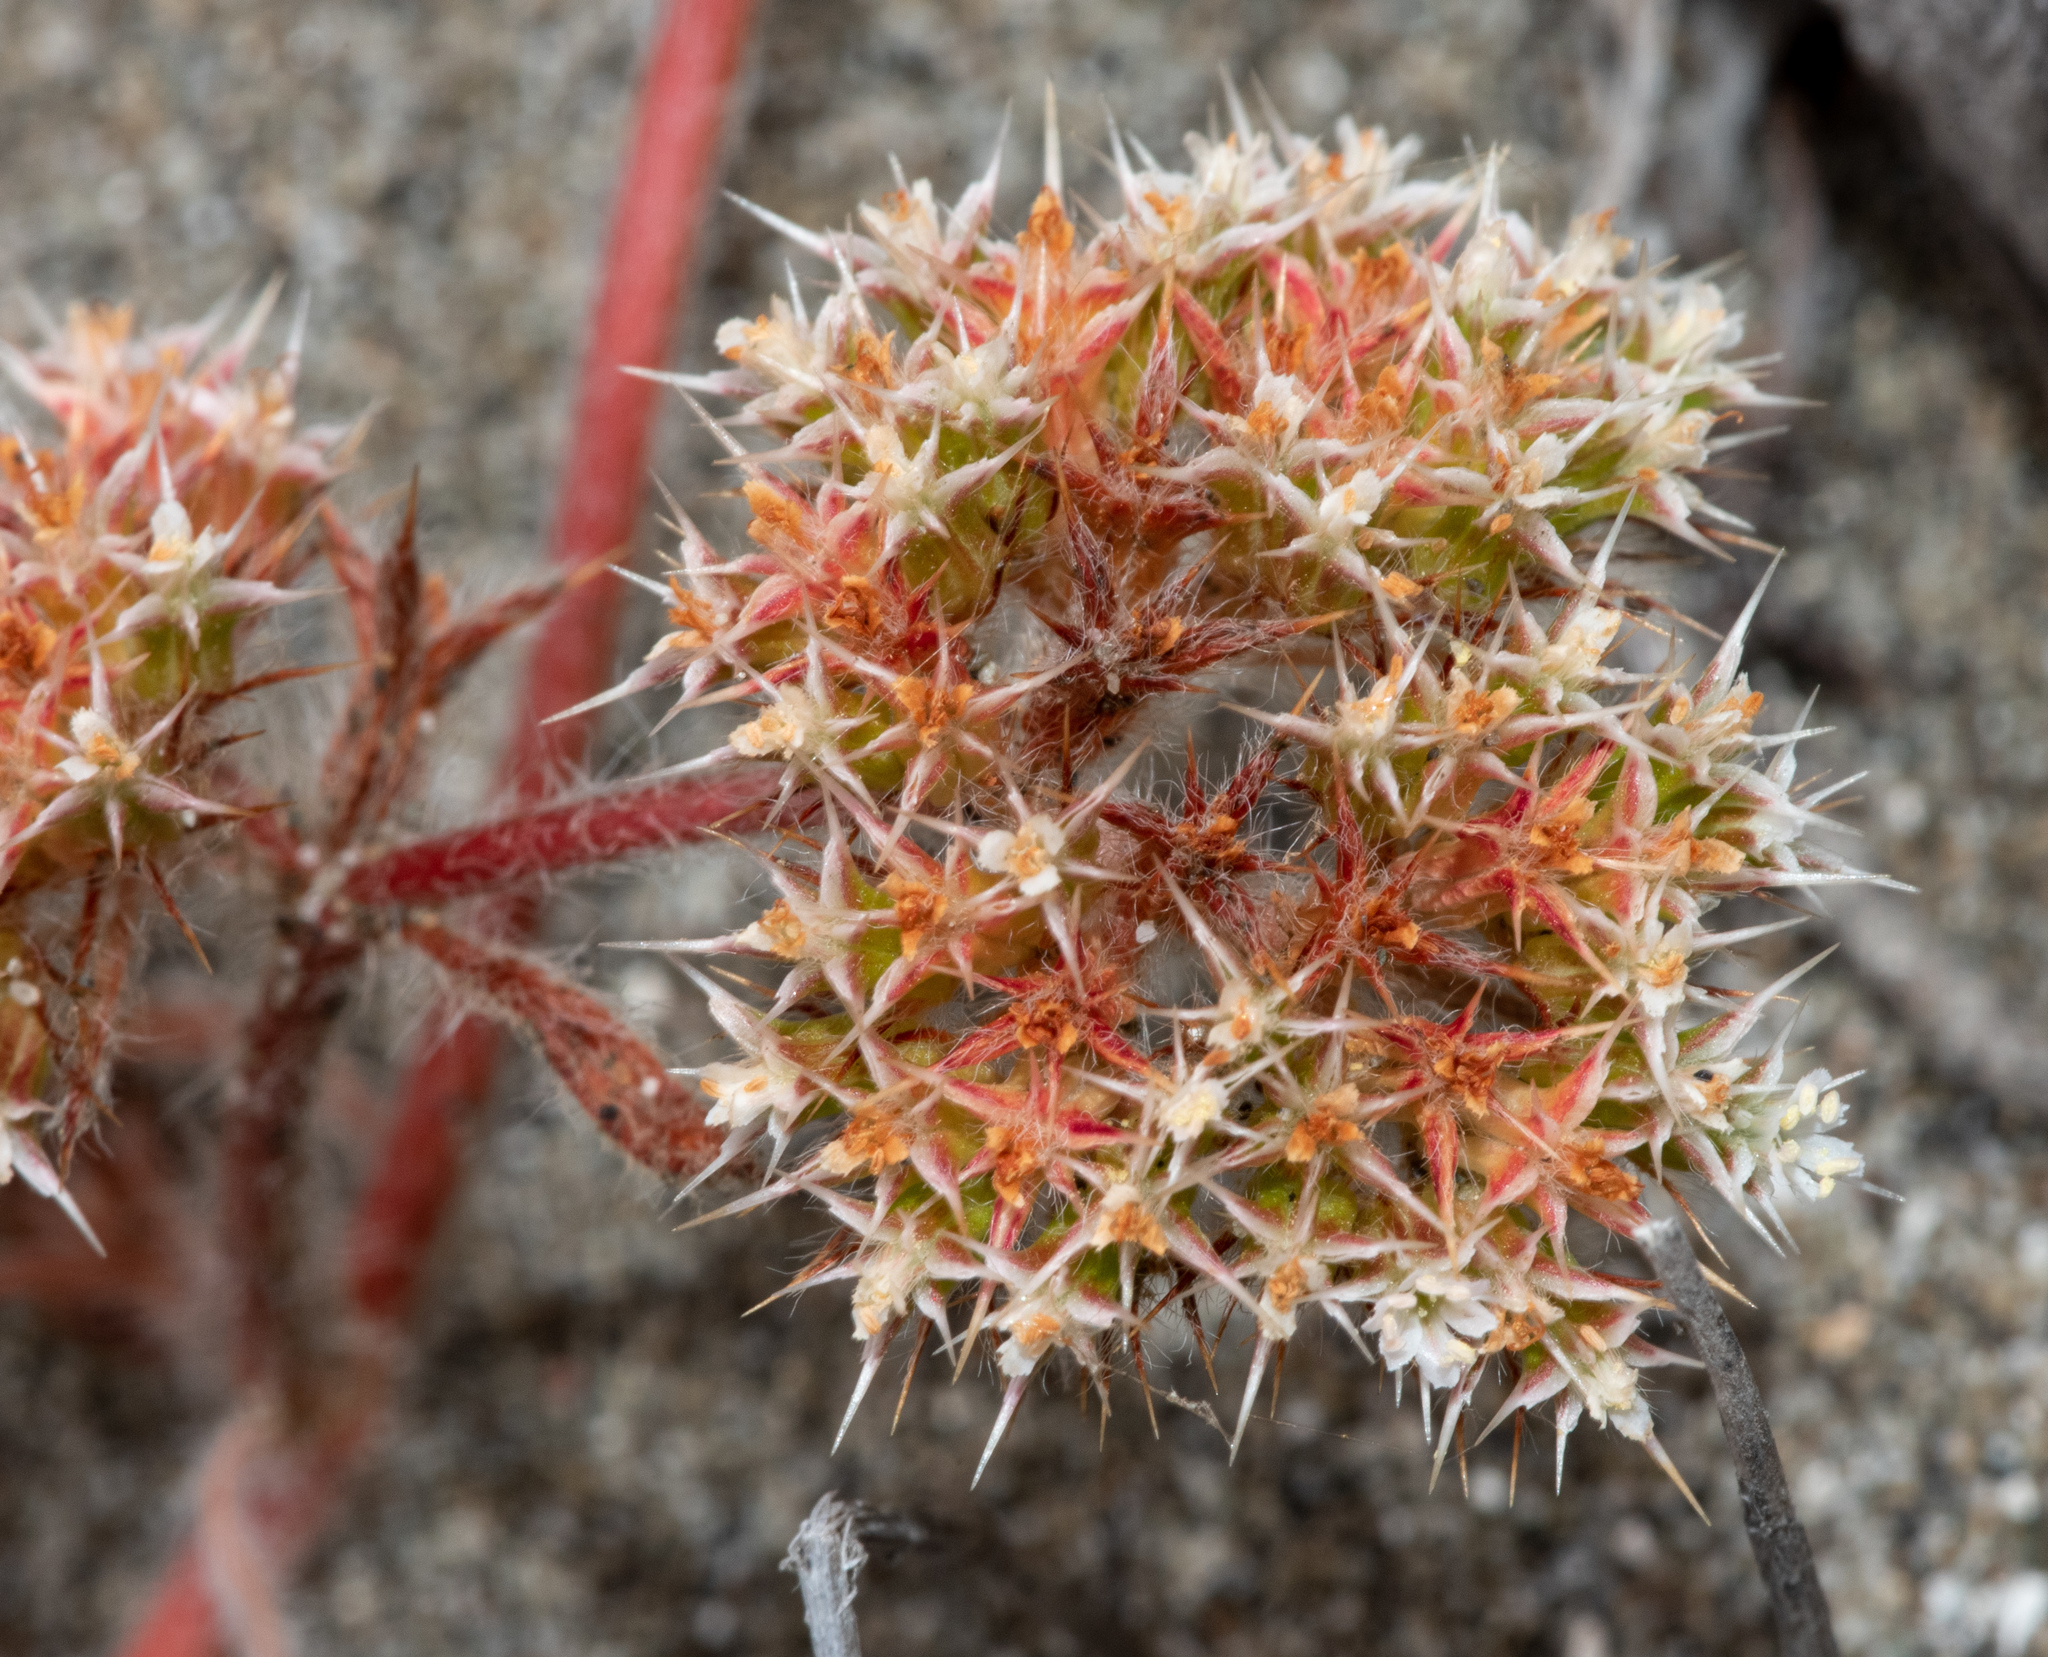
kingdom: Plantae
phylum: Tracheophyta
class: Magnoliopsida
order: Caryophyllales
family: Polygonaceae
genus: Chorizanthe
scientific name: Chorizanthe howellii
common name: Howell's spineflower
